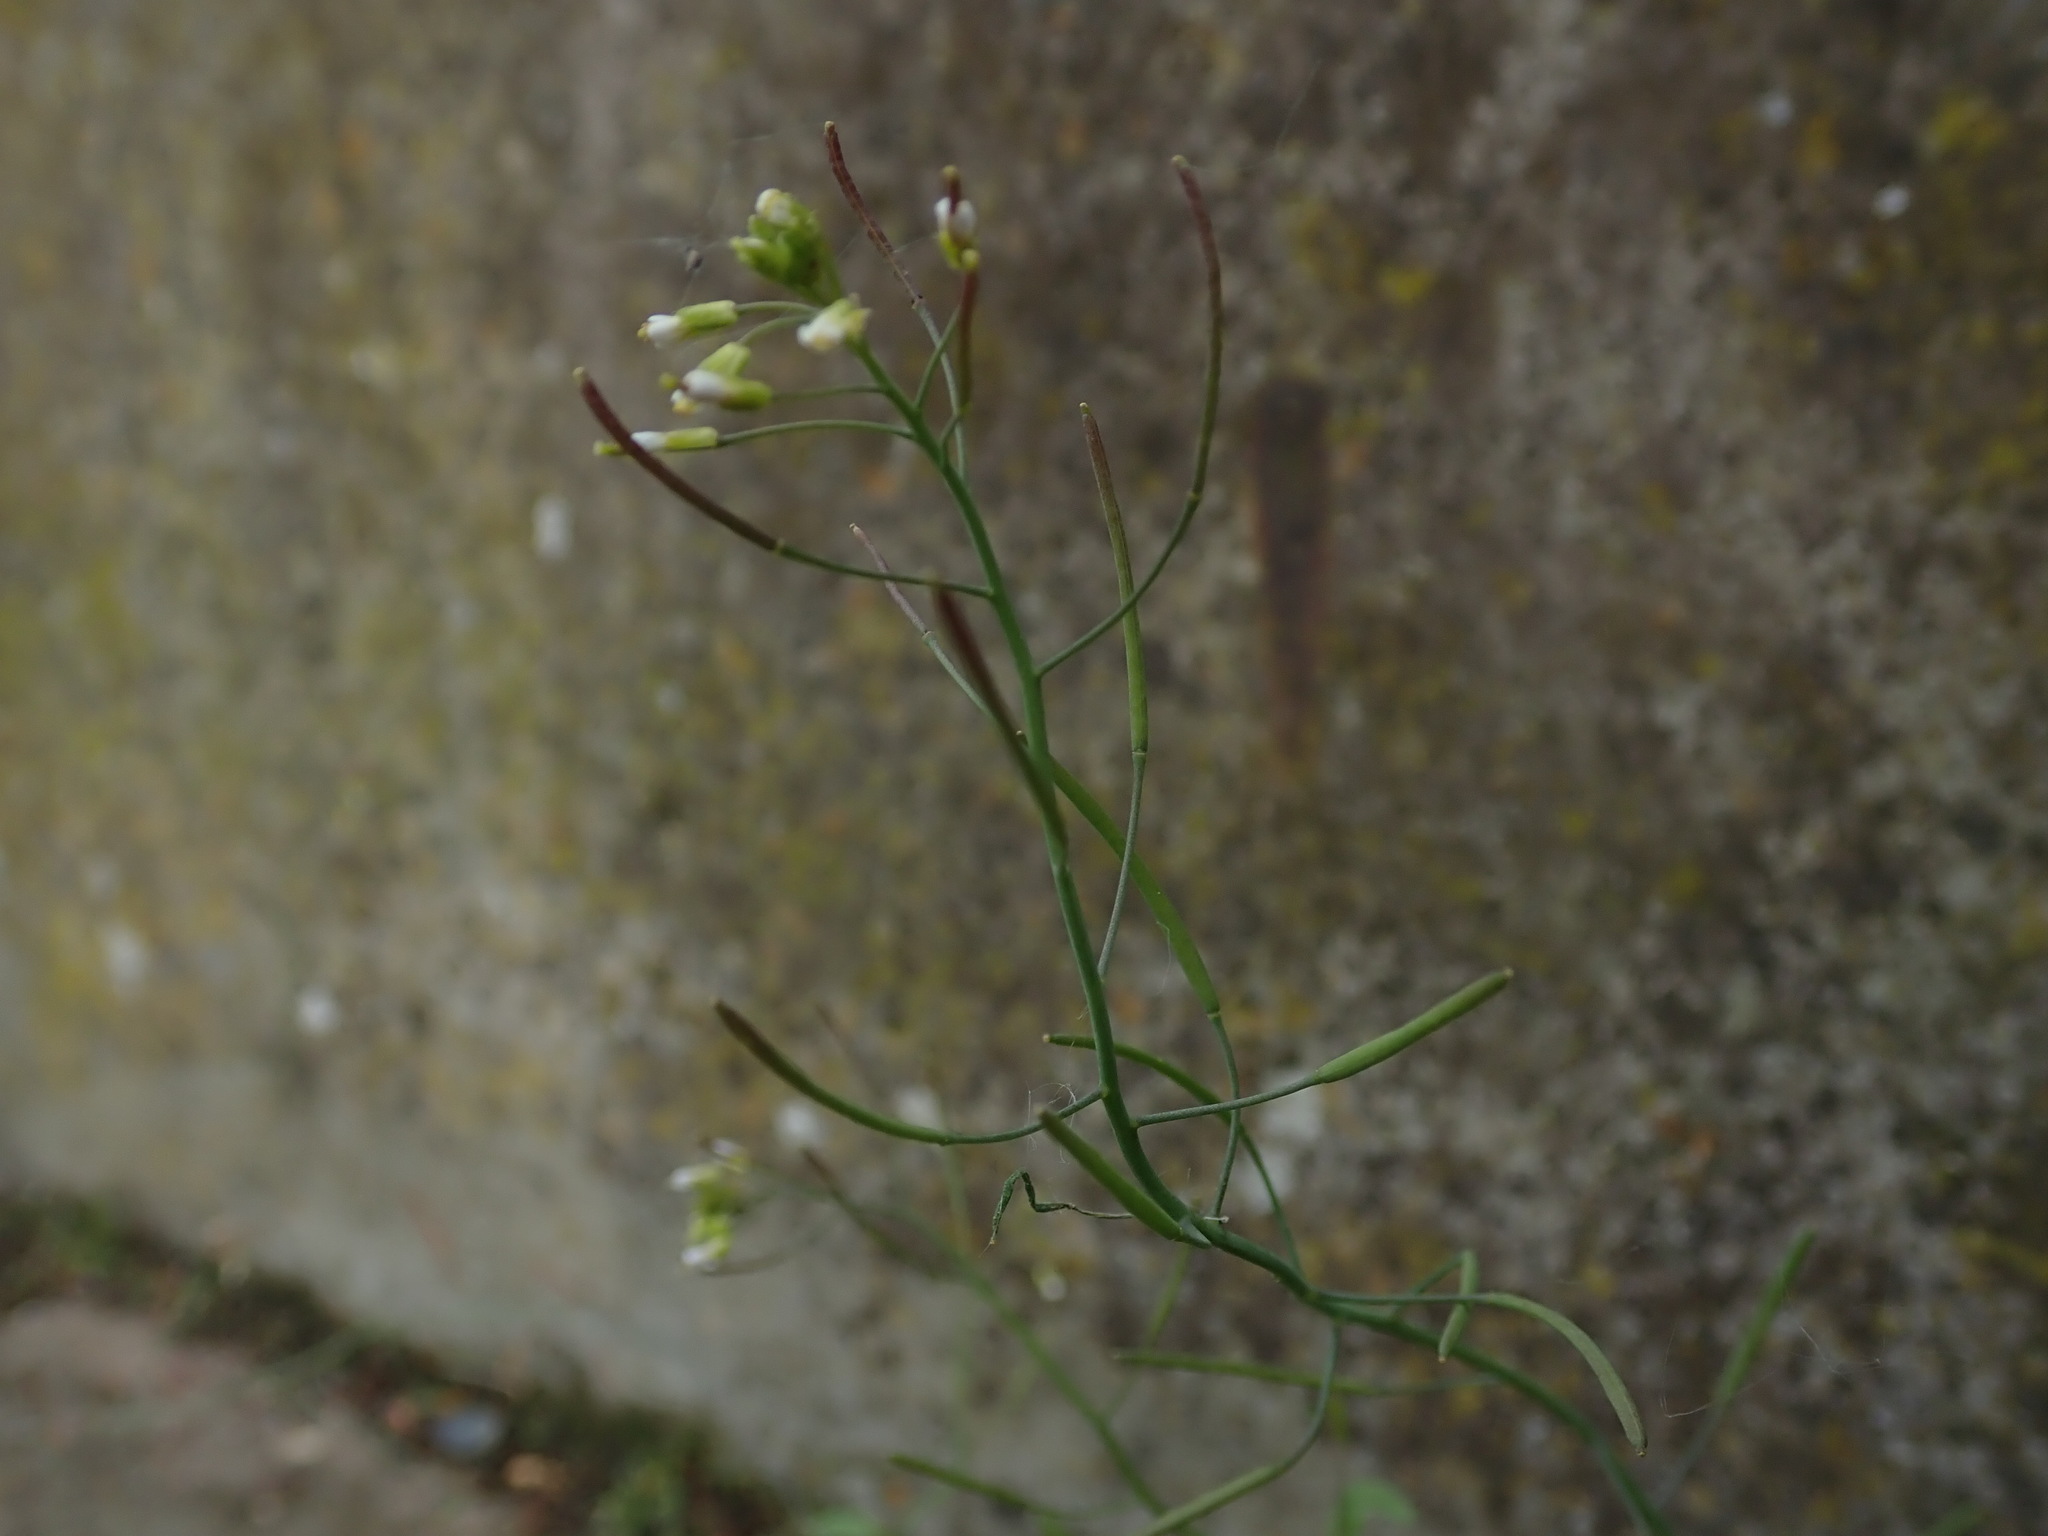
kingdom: Plantae
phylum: Tracheophyta
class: Magnoliopsida
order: Brassicales
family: Brassicaceae
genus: Arabidopsis
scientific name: Arabidopsis thaliana
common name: Thale cress
